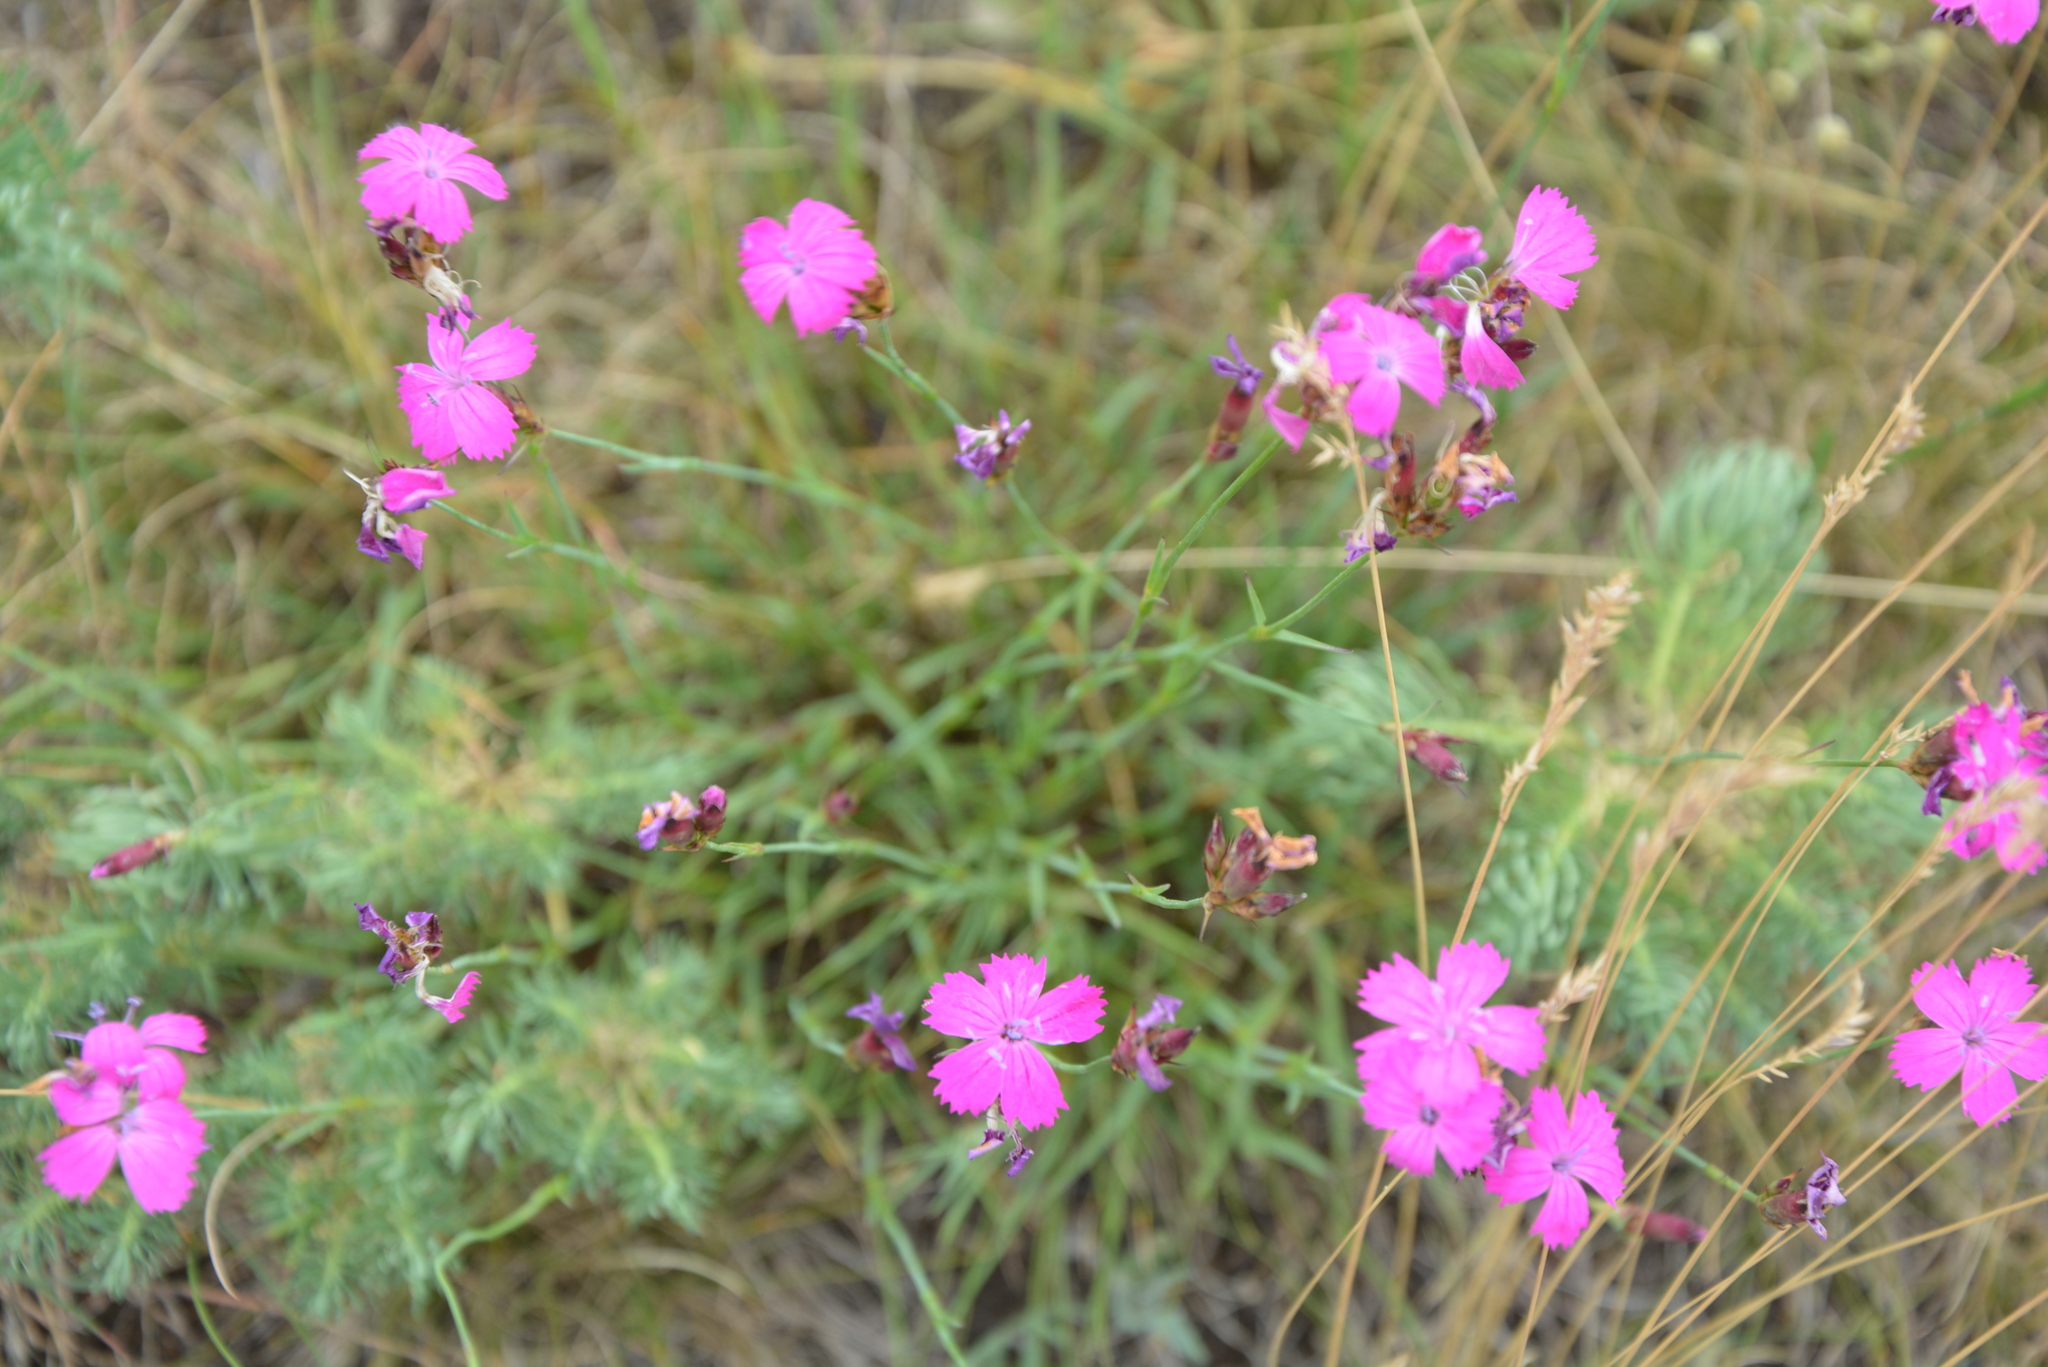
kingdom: Plantae
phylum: Tracheophyta
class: Magnoliopsida
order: Caryophyllales
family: Caryophyllaceae
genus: Dianthus
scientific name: Dianthus carthusianorum
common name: Carthusian pink
